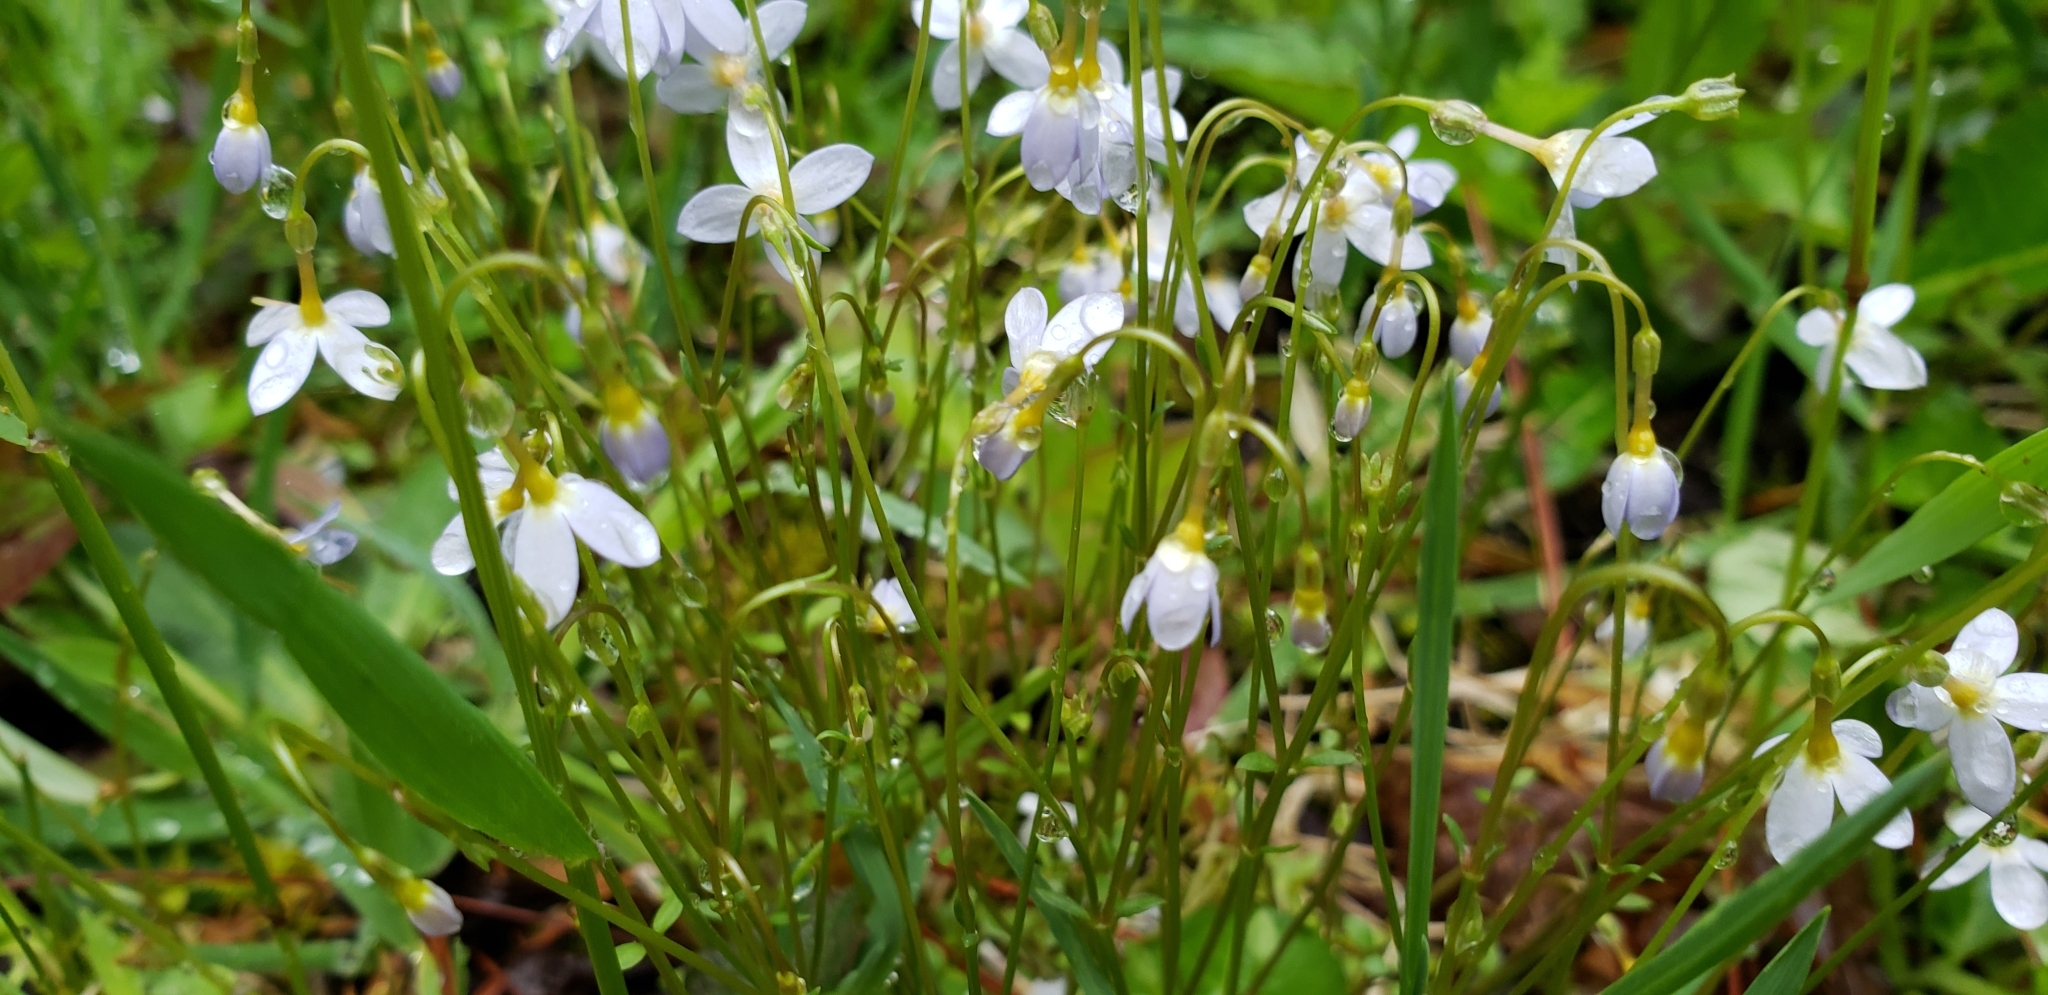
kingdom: Plantae
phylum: Tracheophyta
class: Magnoliopsida
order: Gentianales
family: Rubiaceae
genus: Houstonia
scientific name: Houstonia caerulea
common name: Bluets
